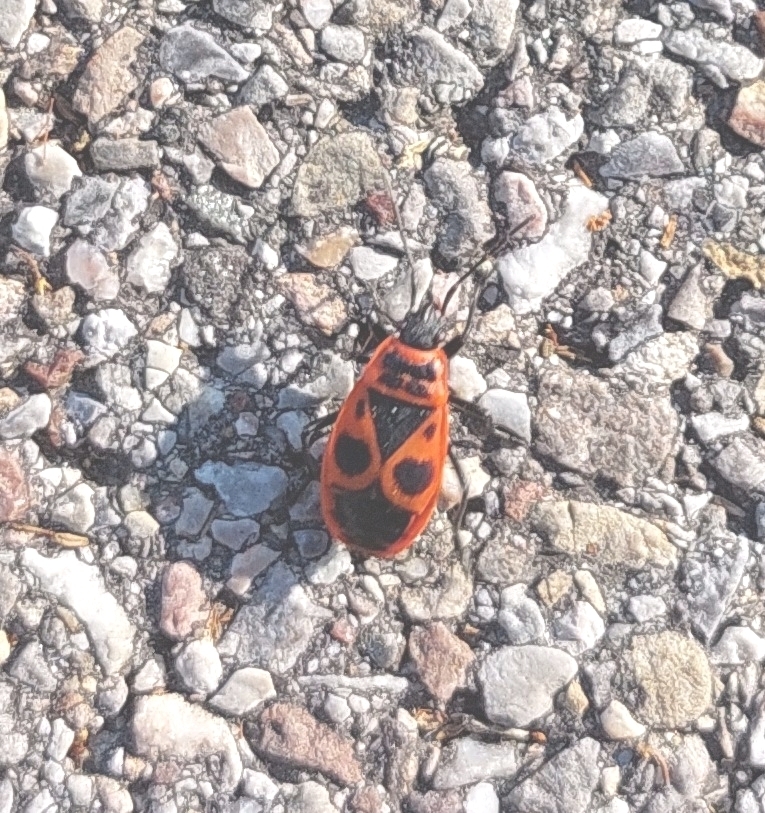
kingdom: Animalia
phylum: Arthropoda
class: Insecta
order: Hemiptera
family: Pyrrhocoridae
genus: Pyrrhocoris
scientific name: Pyrrhocoris apterus
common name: Firebug
